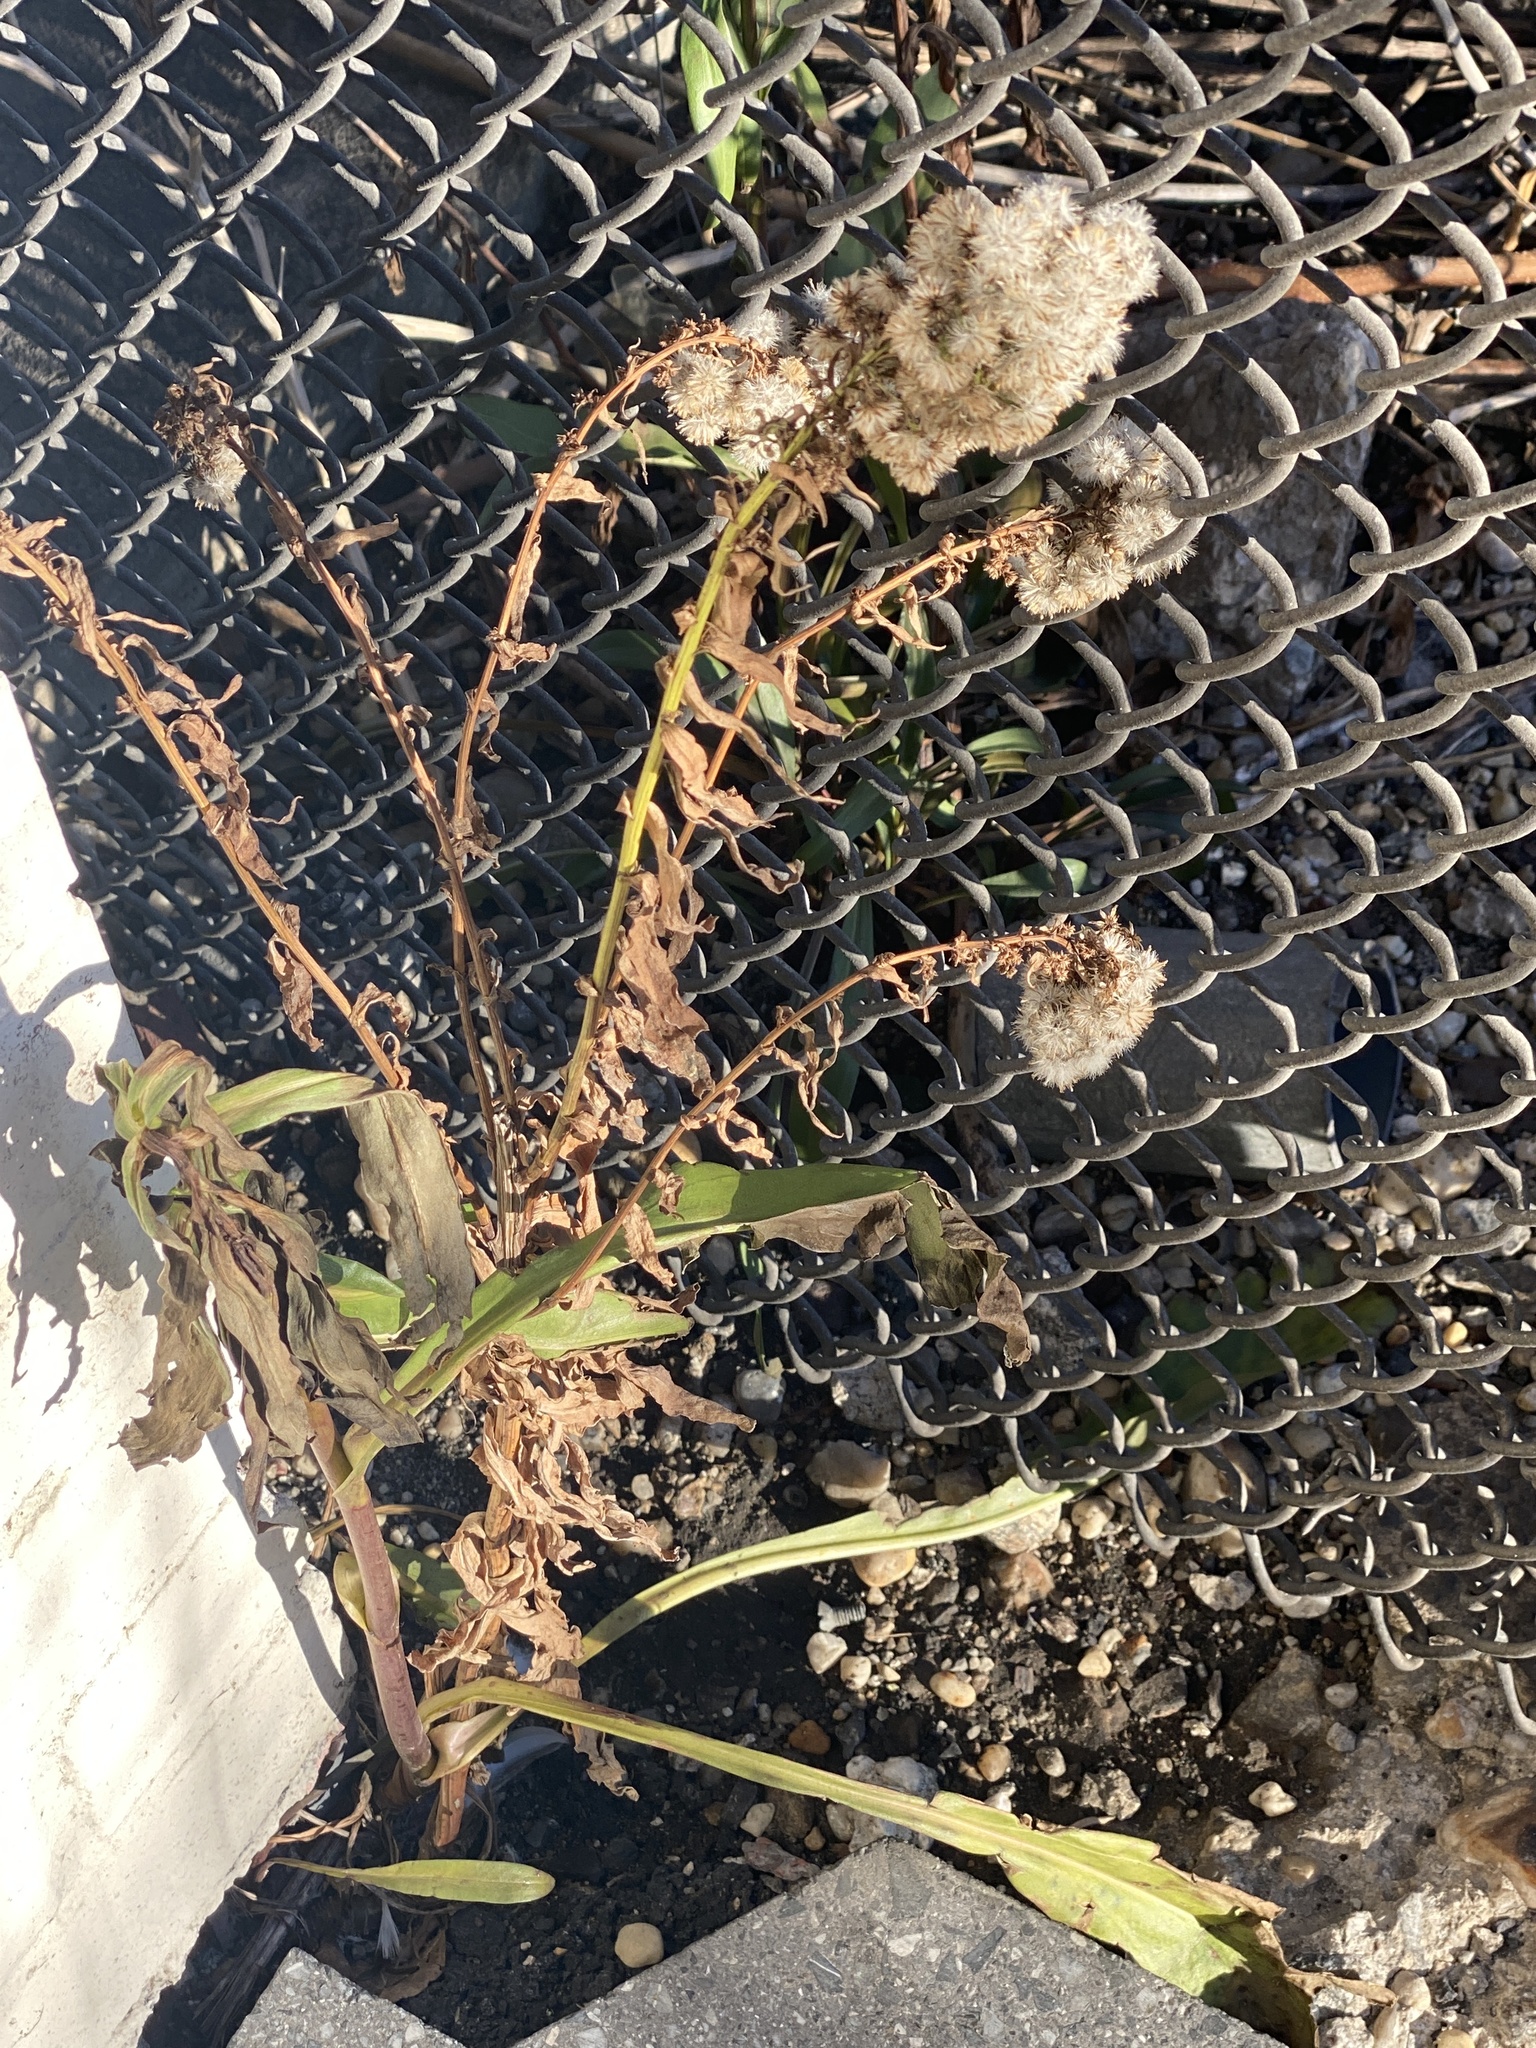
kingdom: Plantae
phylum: Tracheophyta
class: Magnoliopsida
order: Asterales
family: Asteraceae
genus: Solidago
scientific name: Solidago sempervirens
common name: Salt-marsh goldenrod
